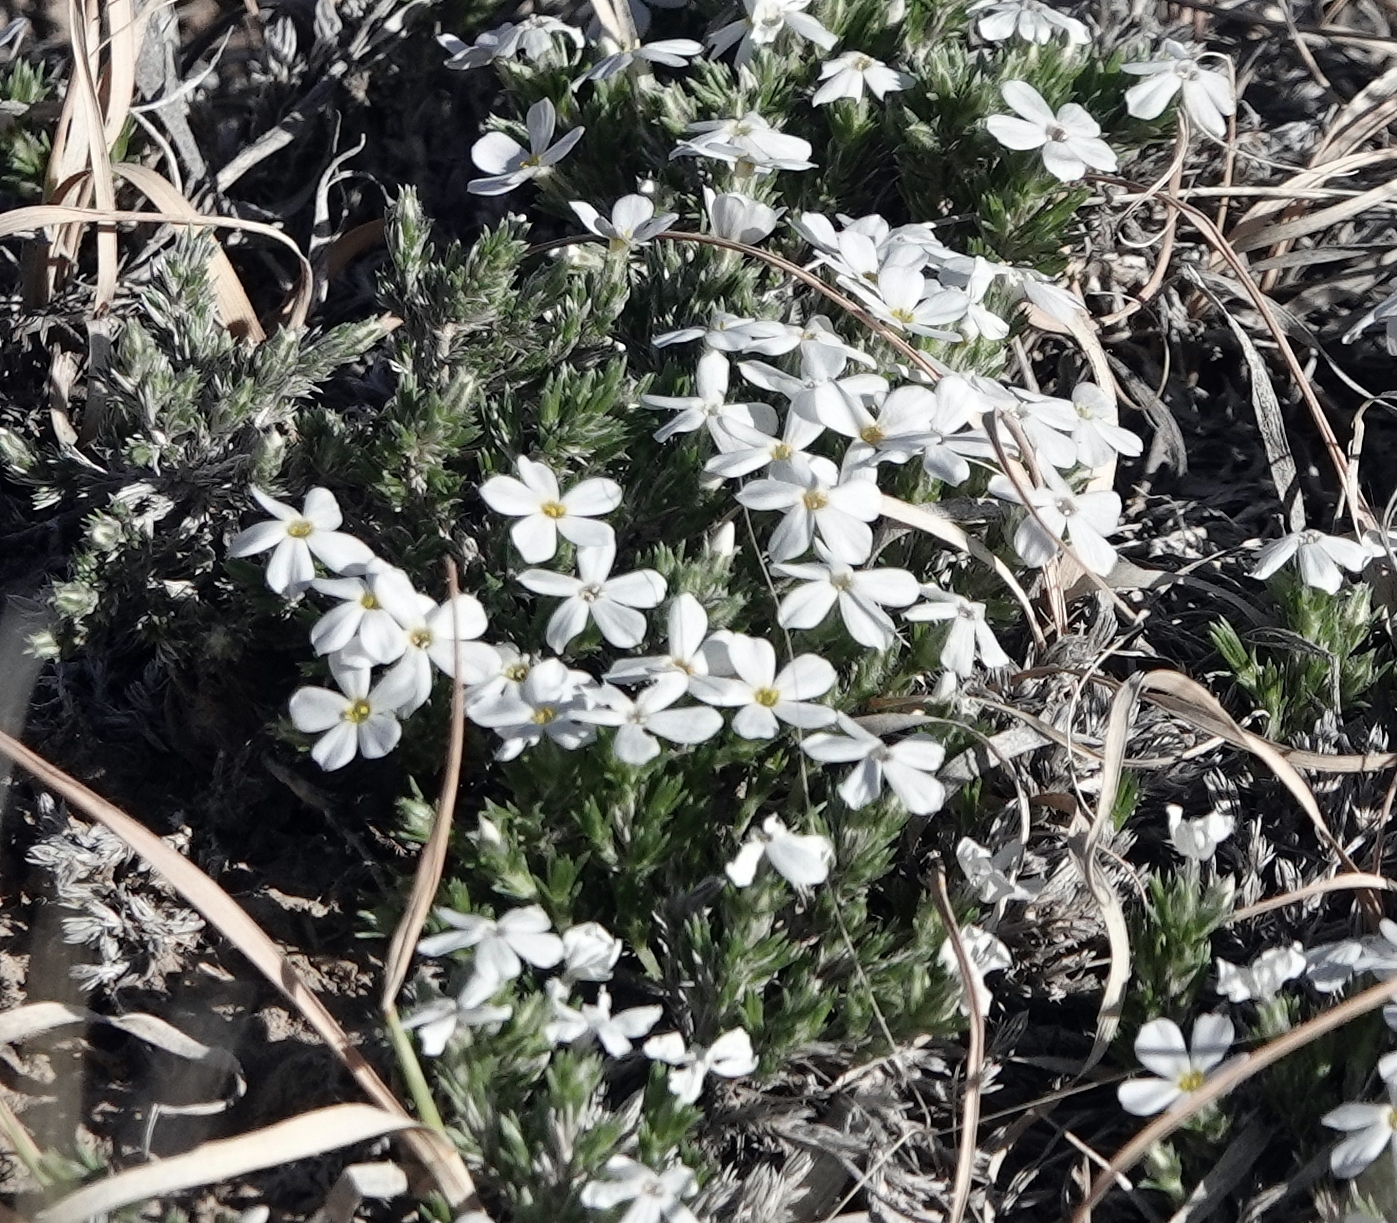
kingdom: Plantae
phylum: Tracheophyta
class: Magnoliopsida
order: Ericales
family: Polemoniaceae
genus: Phlox
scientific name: Phlox hoodii
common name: Moss phlox
